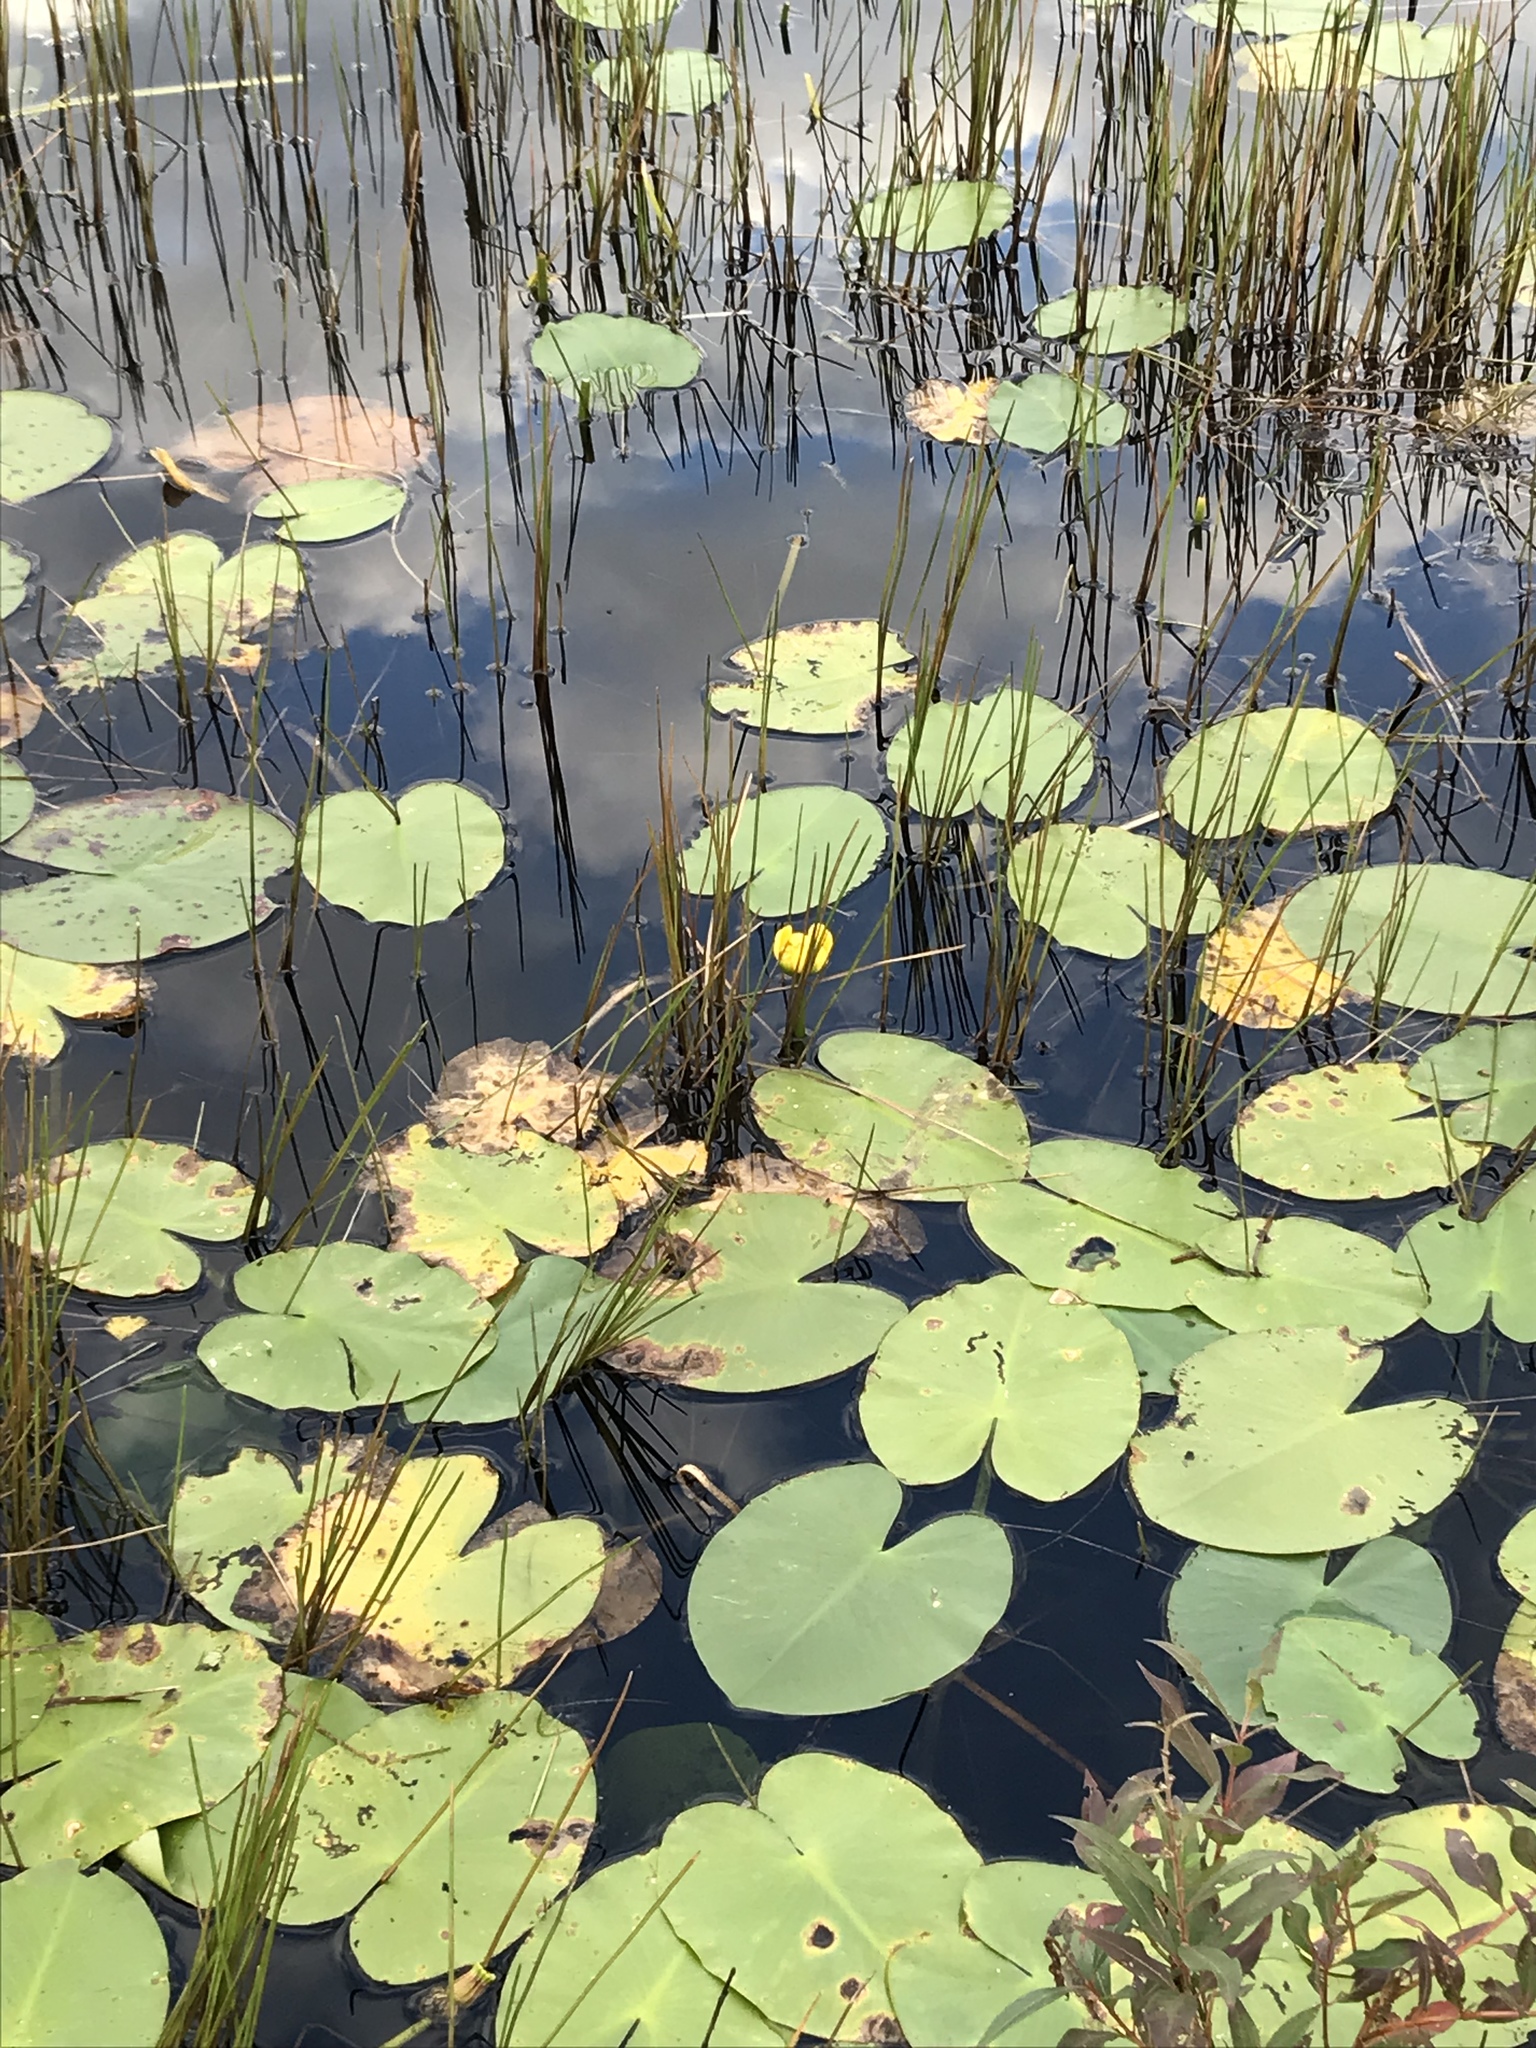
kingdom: Plantae
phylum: Tracheophyta
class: Magnoliopsida
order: Nymphaeales
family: Nymphaeaceae
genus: Nuphar
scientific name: Nuphar variegata
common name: Beaver-root
